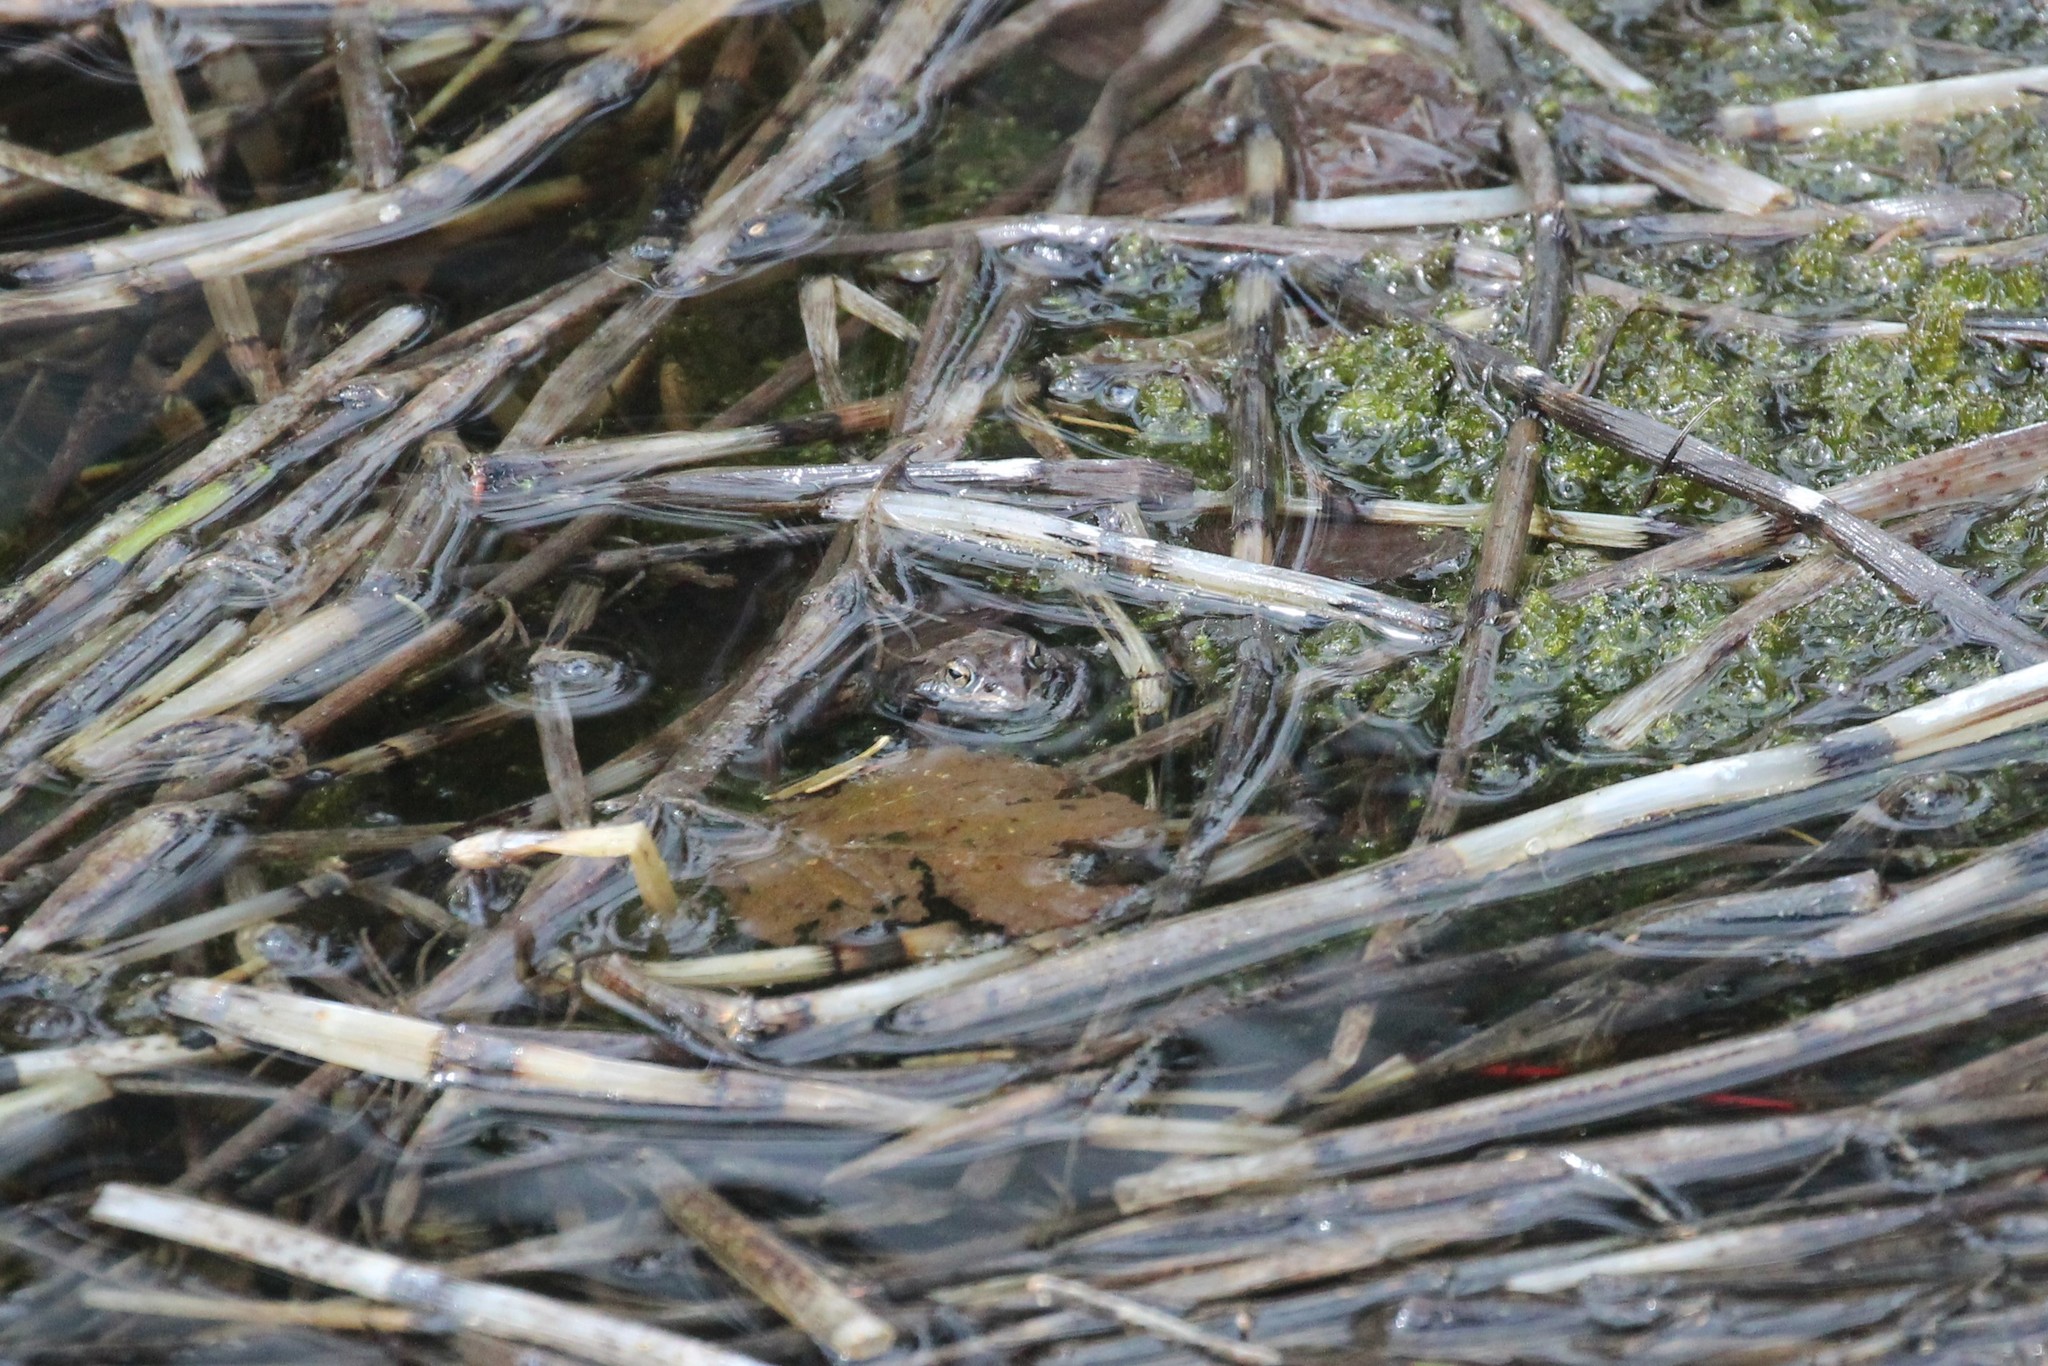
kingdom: Animalia
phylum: Chordata
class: Amphibia
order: Anura
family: Ranidae
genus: Lithobates
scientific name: Lithobates sylvaticus
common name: Wood frog
